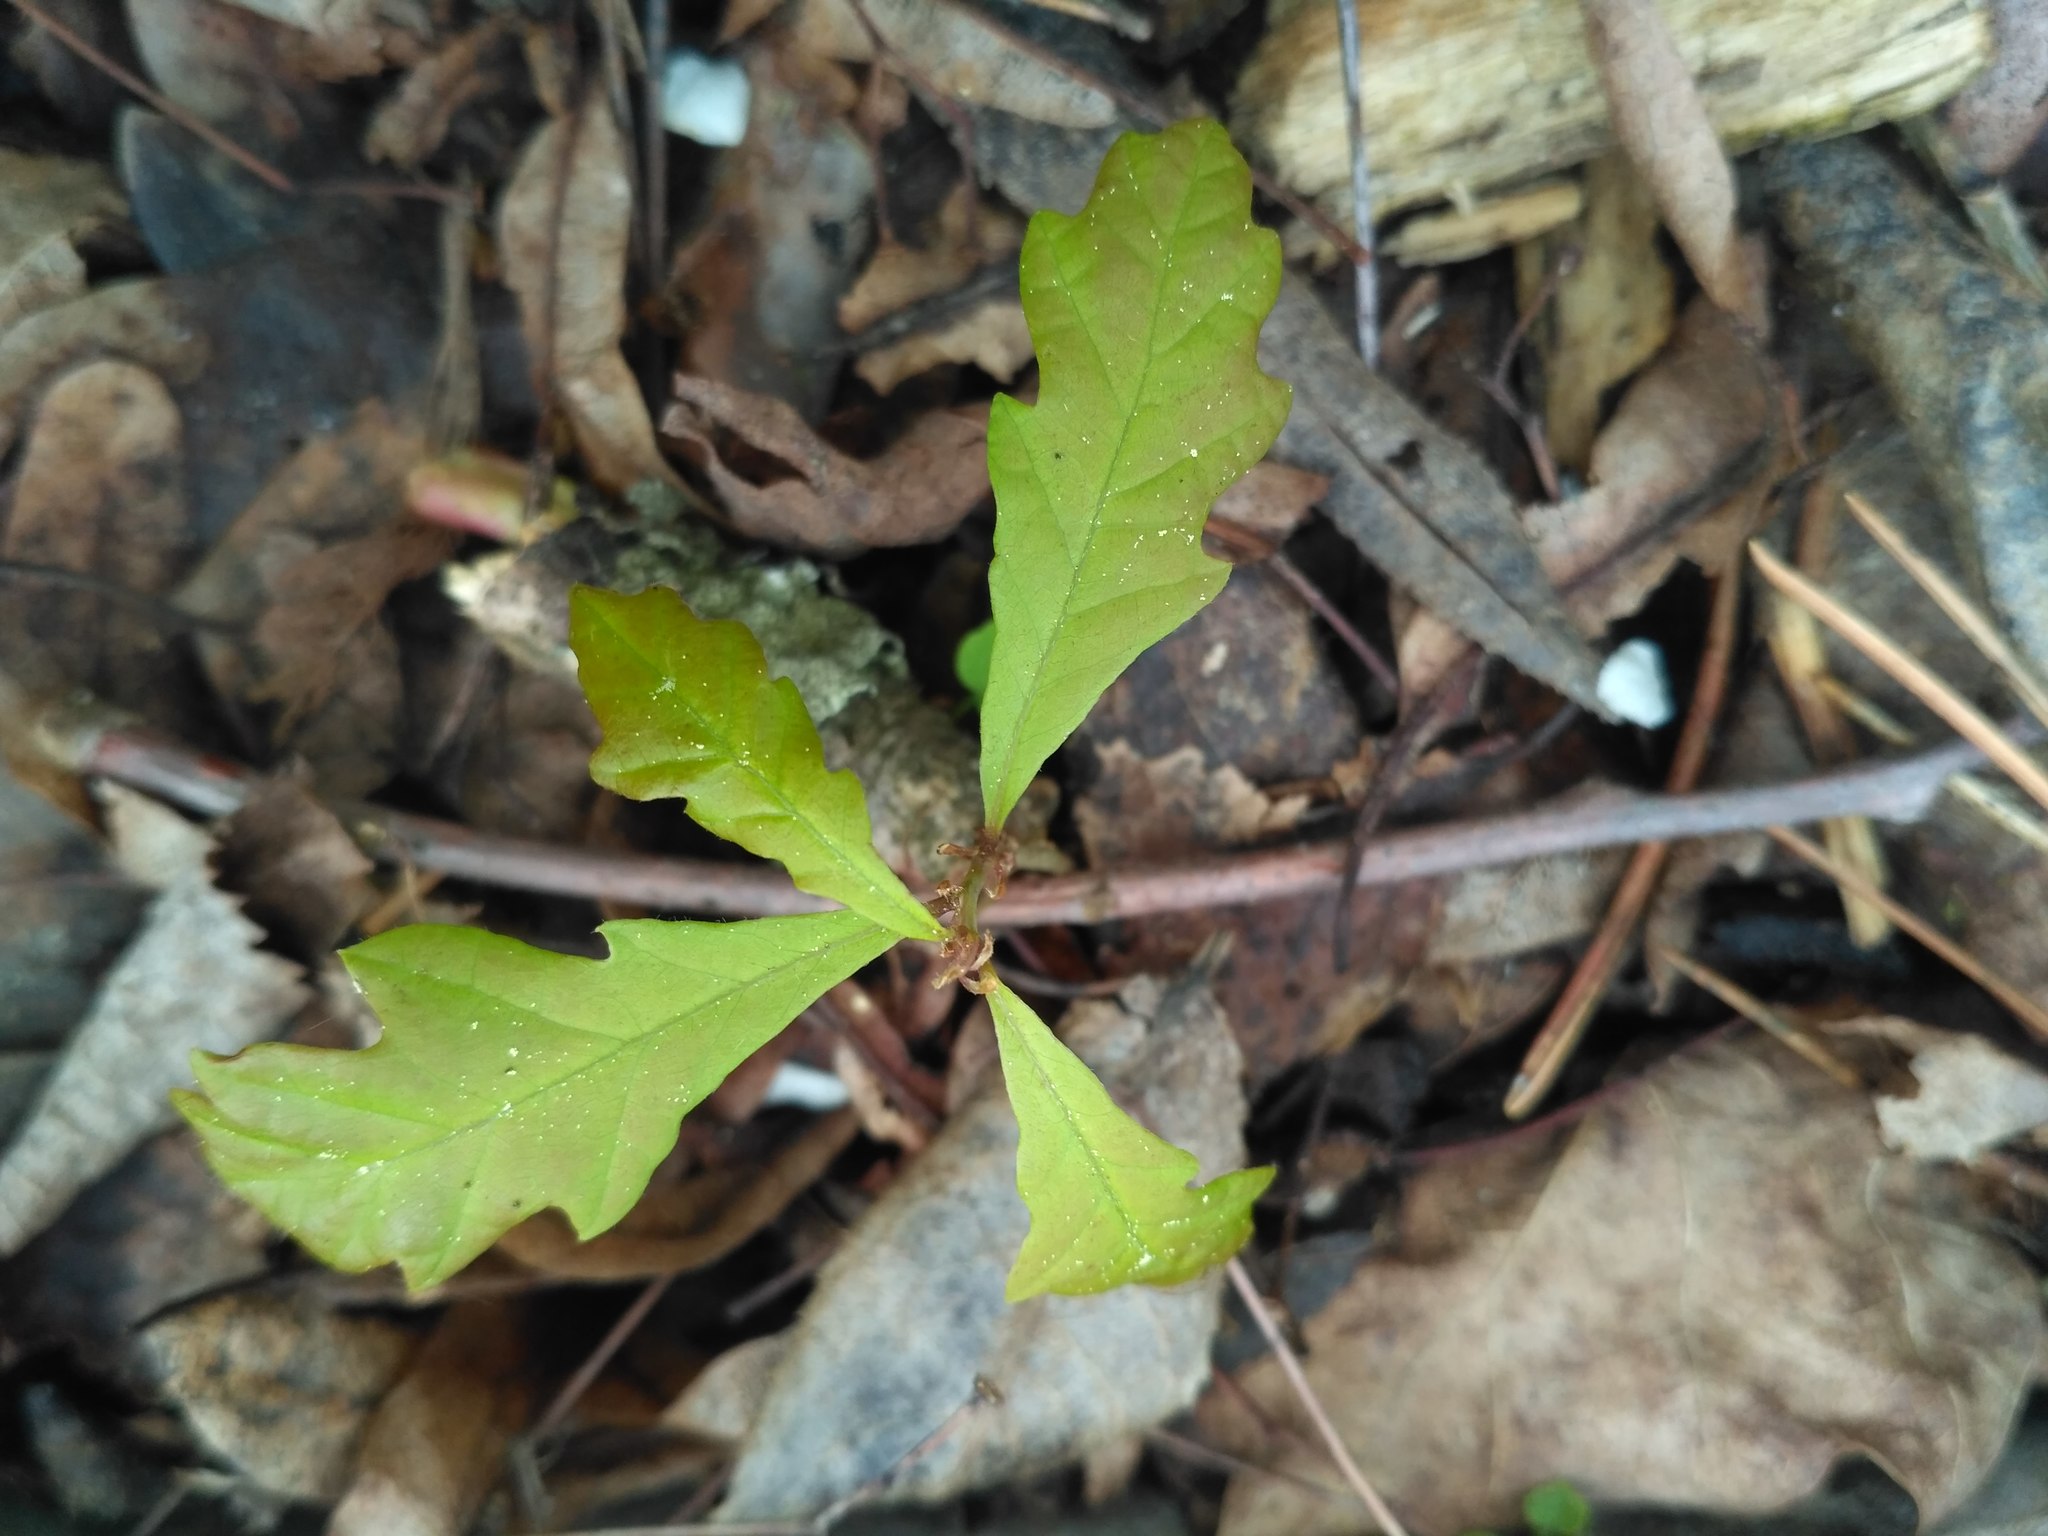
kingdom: Plantae
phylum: Tracheophyta
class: Magnoliopsida
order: Fagales
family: Fagaceae
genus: Quercus
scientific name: Quercus robur
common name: Pedunculate oak
